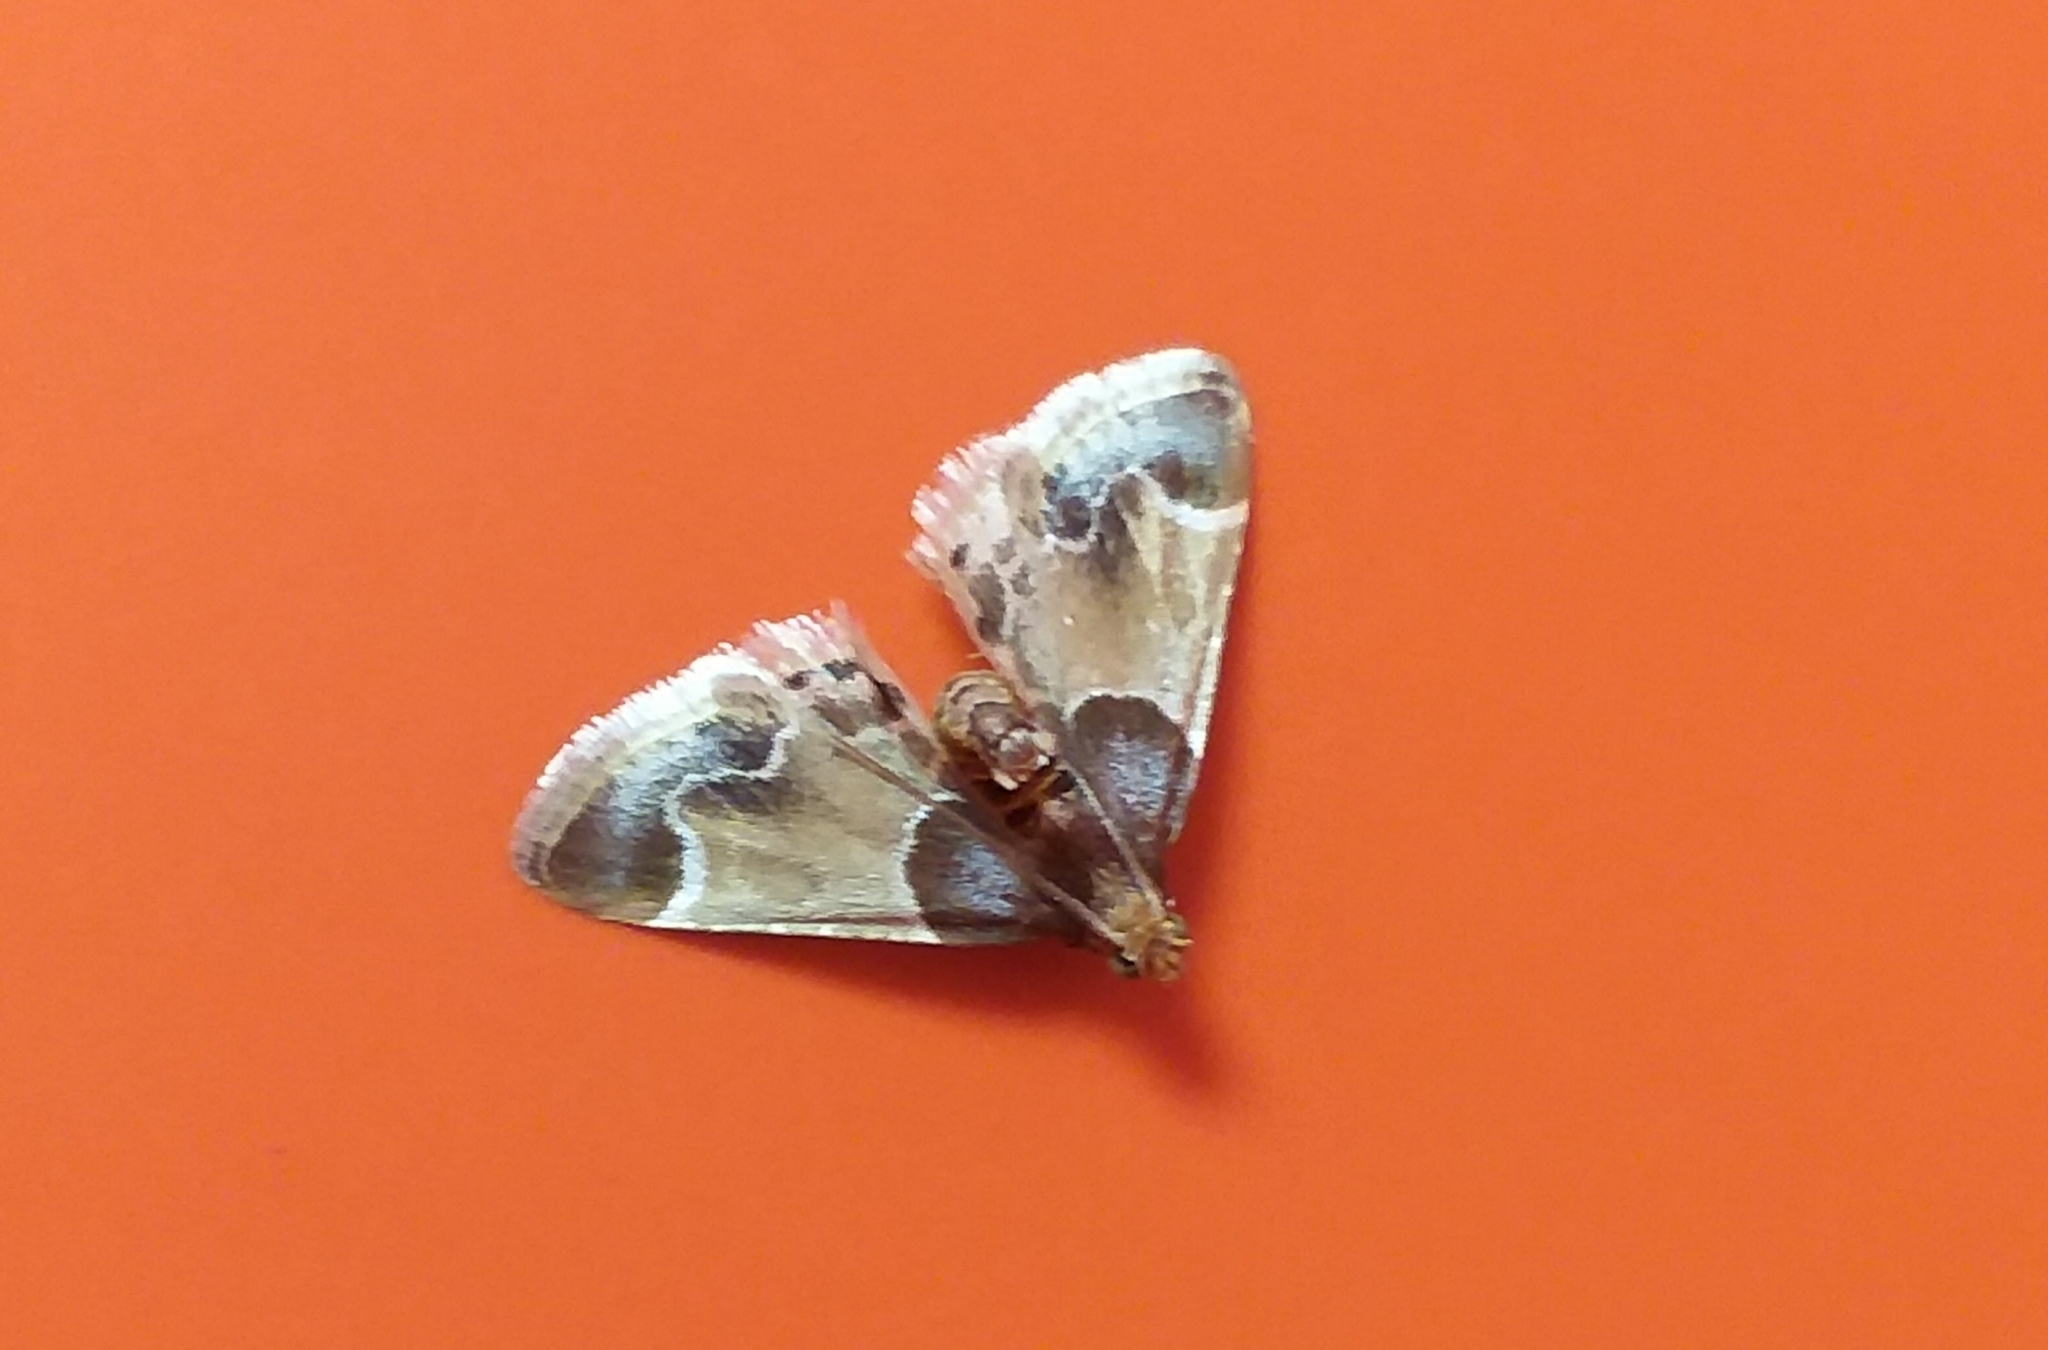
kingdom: Animalia
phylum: Arthropoda
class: Insecta
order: Lepidoptera
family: Pyralidae
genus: Pyralis
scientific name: Pyralis farinalis
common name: Meal moth
